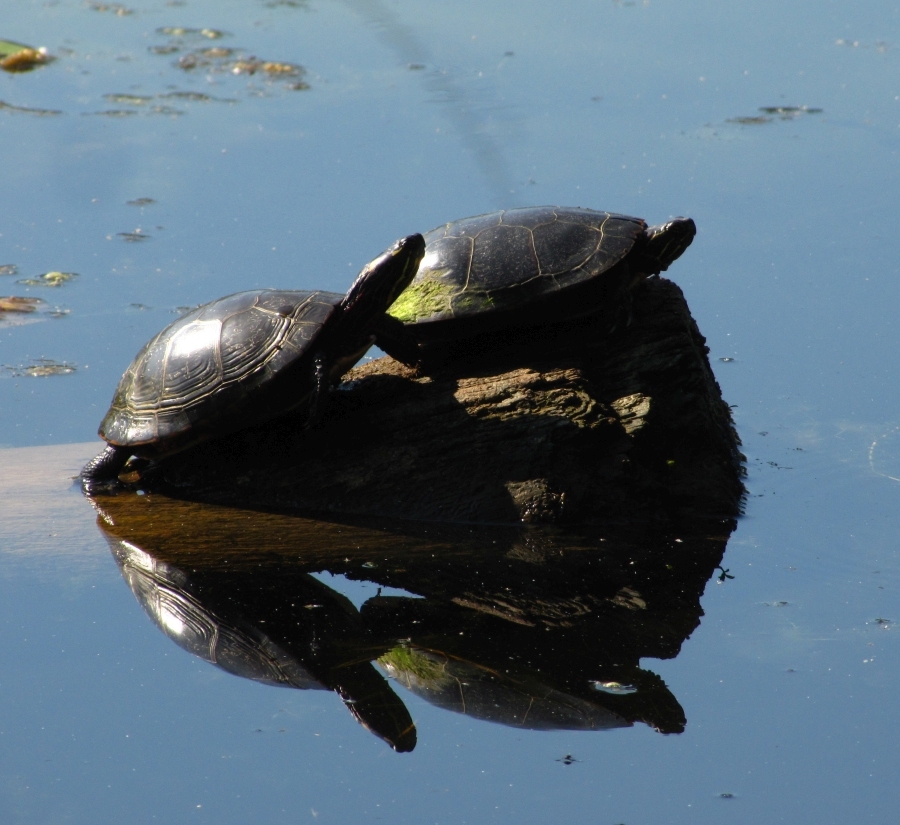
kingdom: Animalia
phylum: Chordata
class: Testudines
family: Emydidae
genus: Chrysemys
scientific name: Chrysemys picta
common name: Painted turtle
